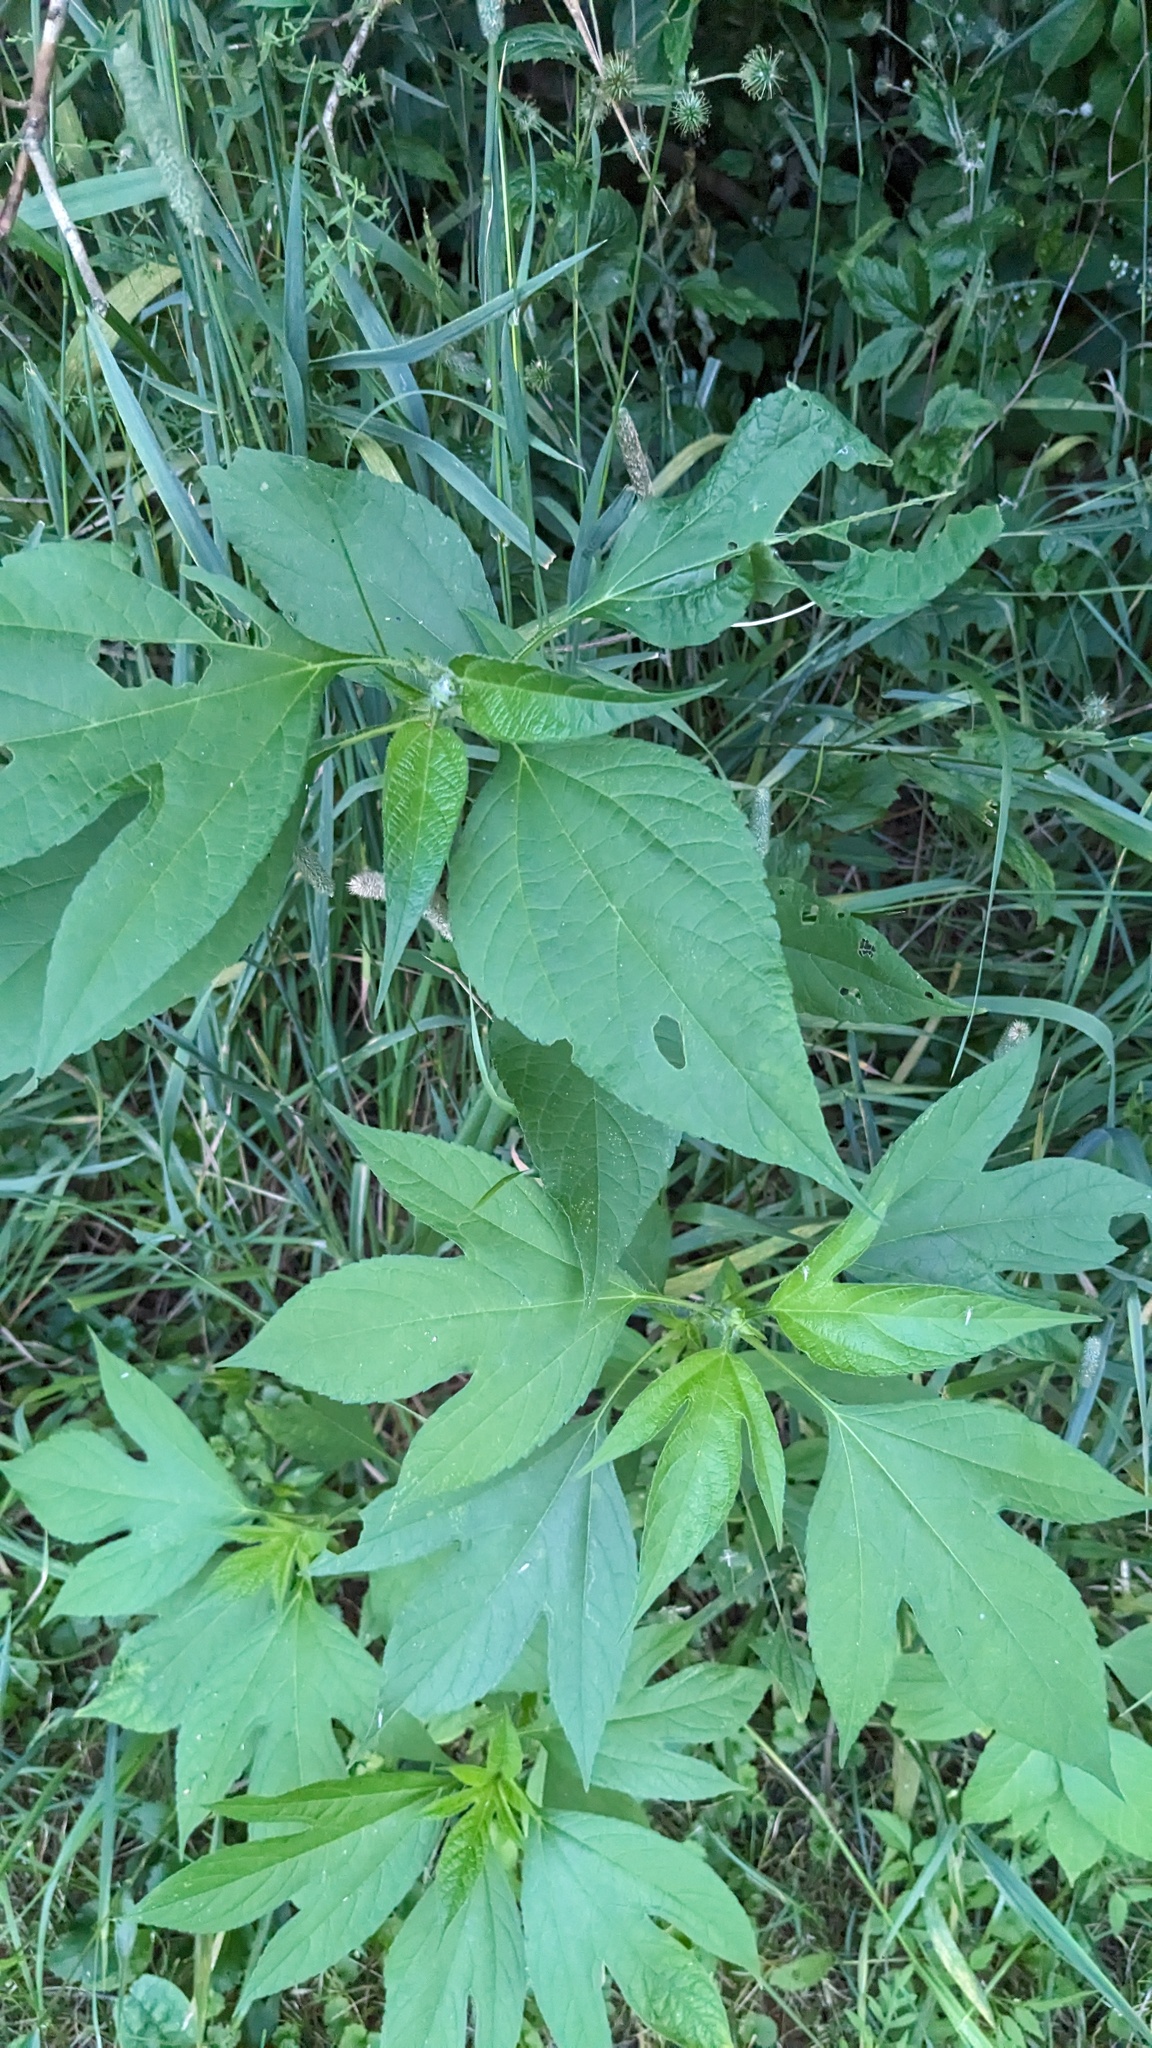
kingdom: Plantae
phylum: Tracheophyta
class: Magnoliopsida
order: Asterales
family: Asteraceae
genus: Ambrosia
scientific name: Ambrosia trifida
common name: Giant ragweed
